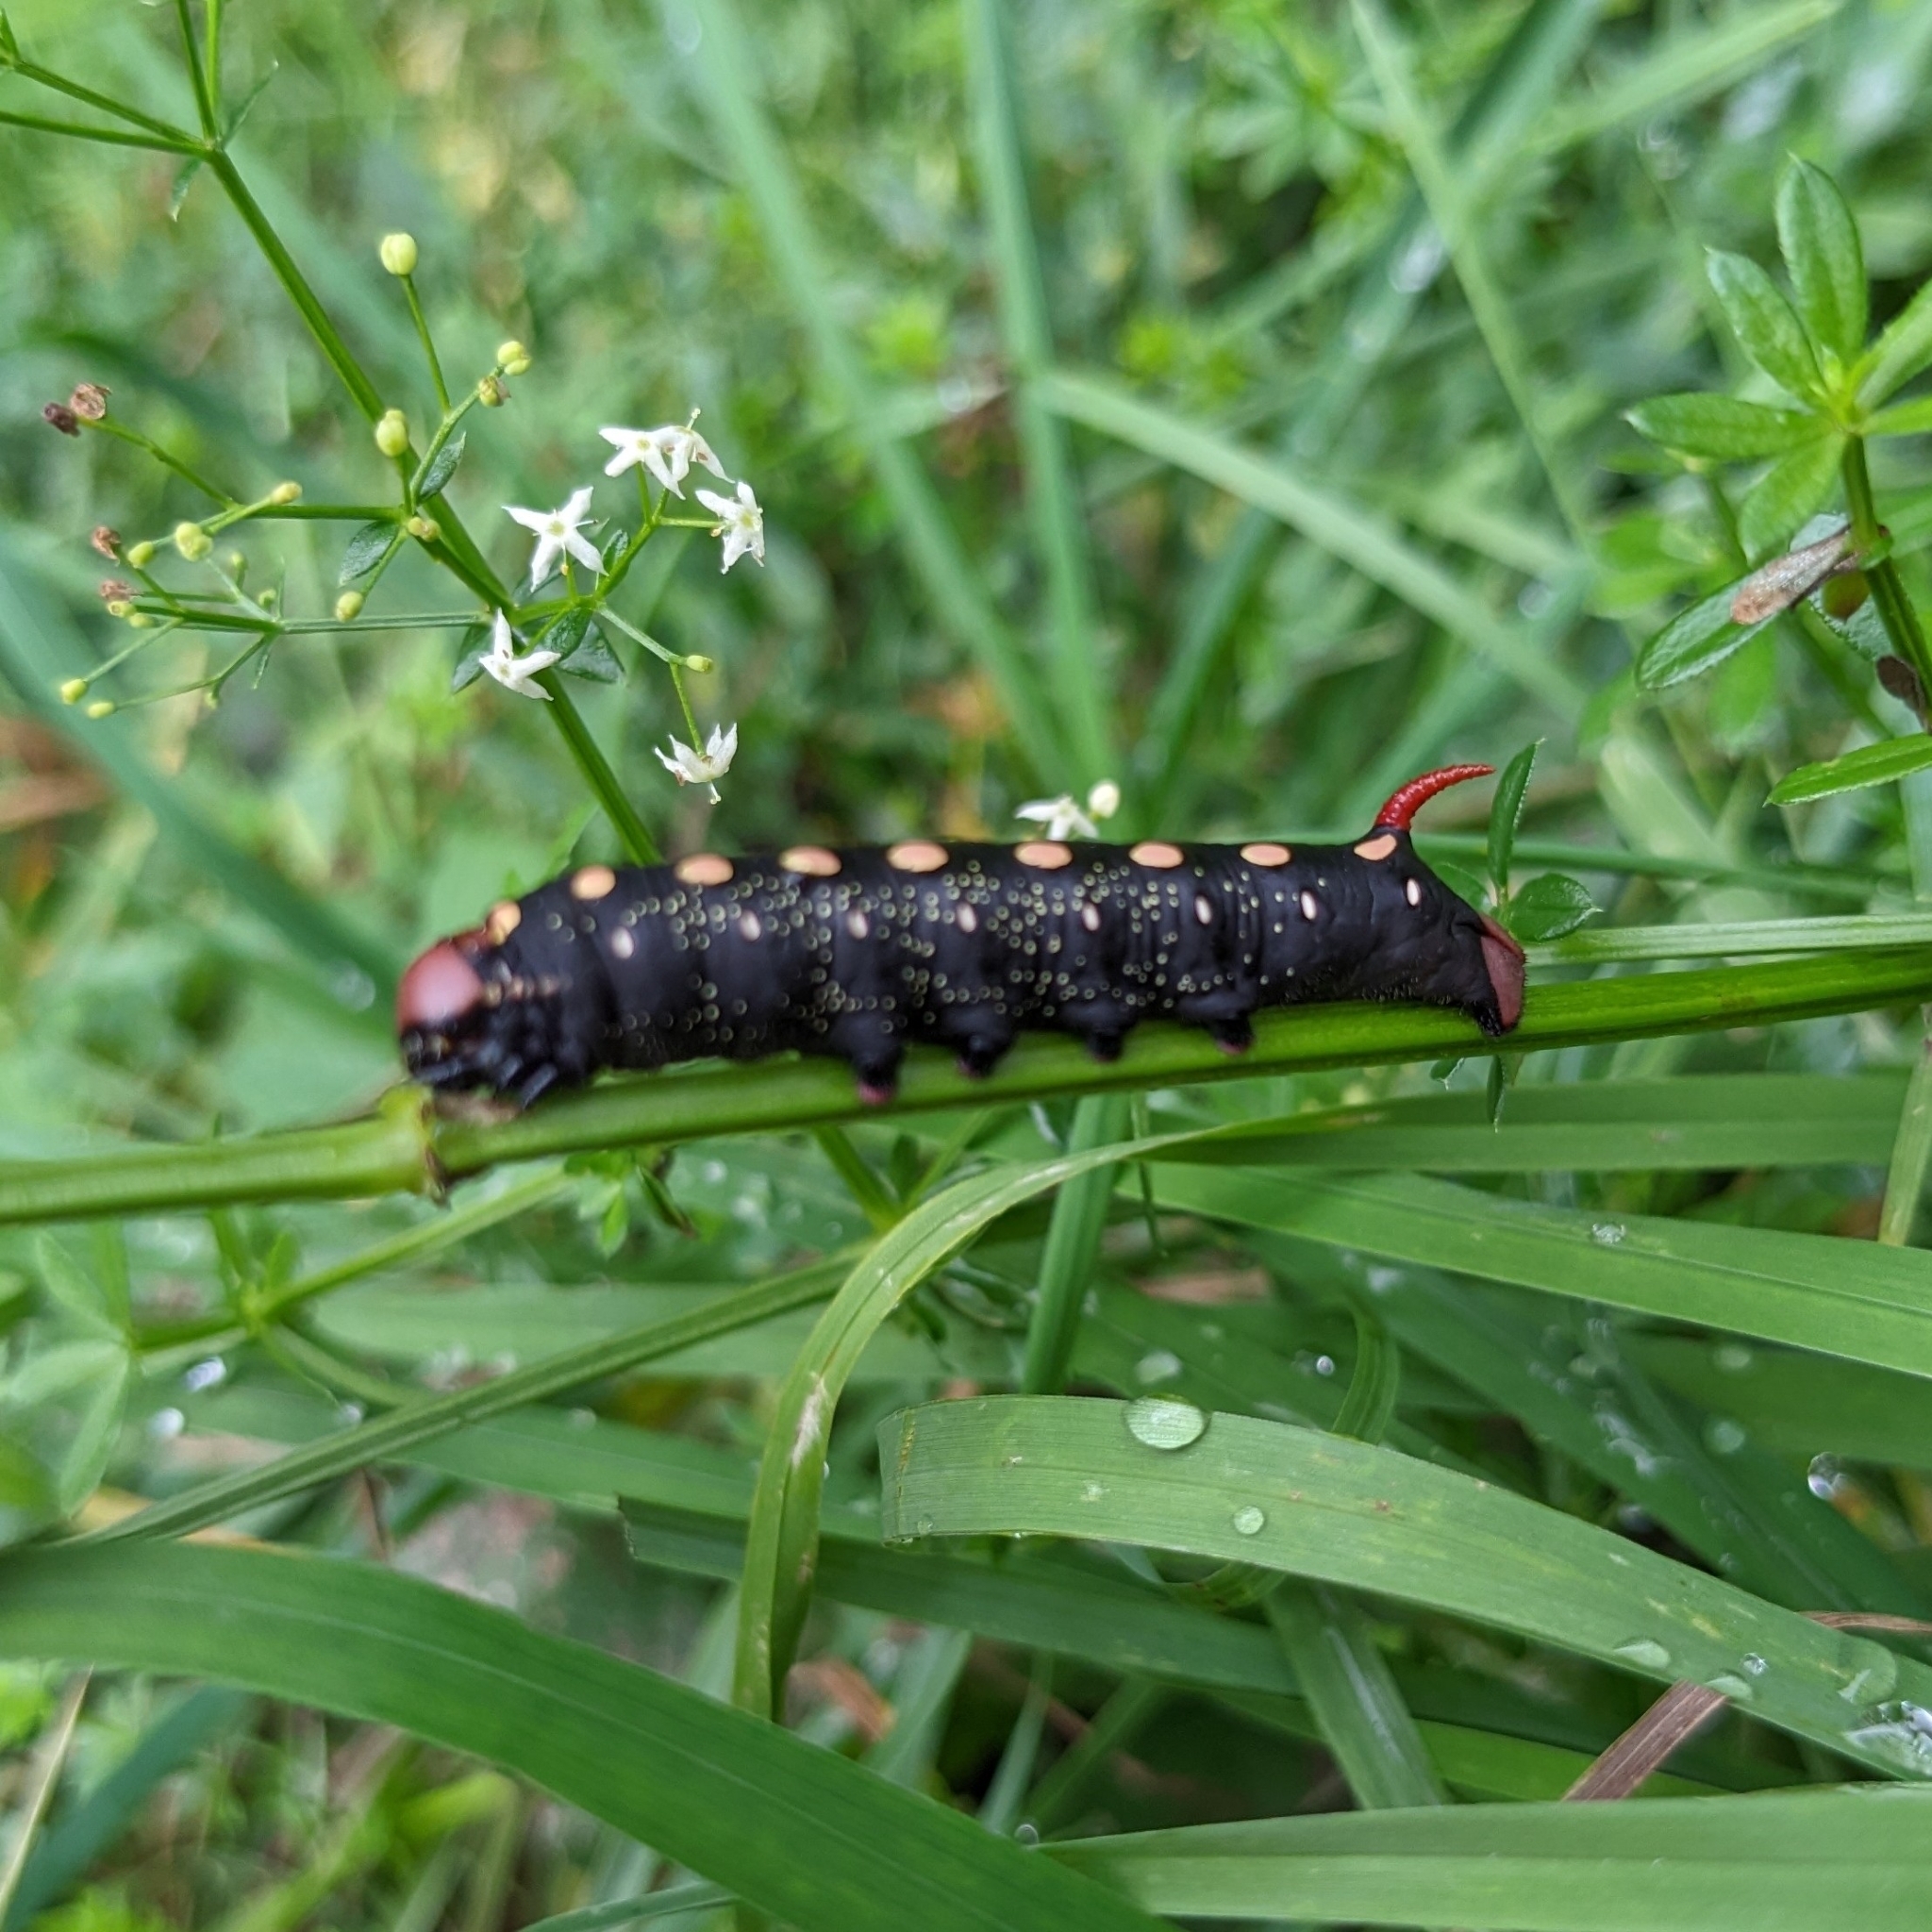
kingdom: Animalia
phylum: Arthropoda
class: Insecta
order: Lepidoptera
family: Sphingidae
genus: Hyles
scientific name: Hyles gallii
